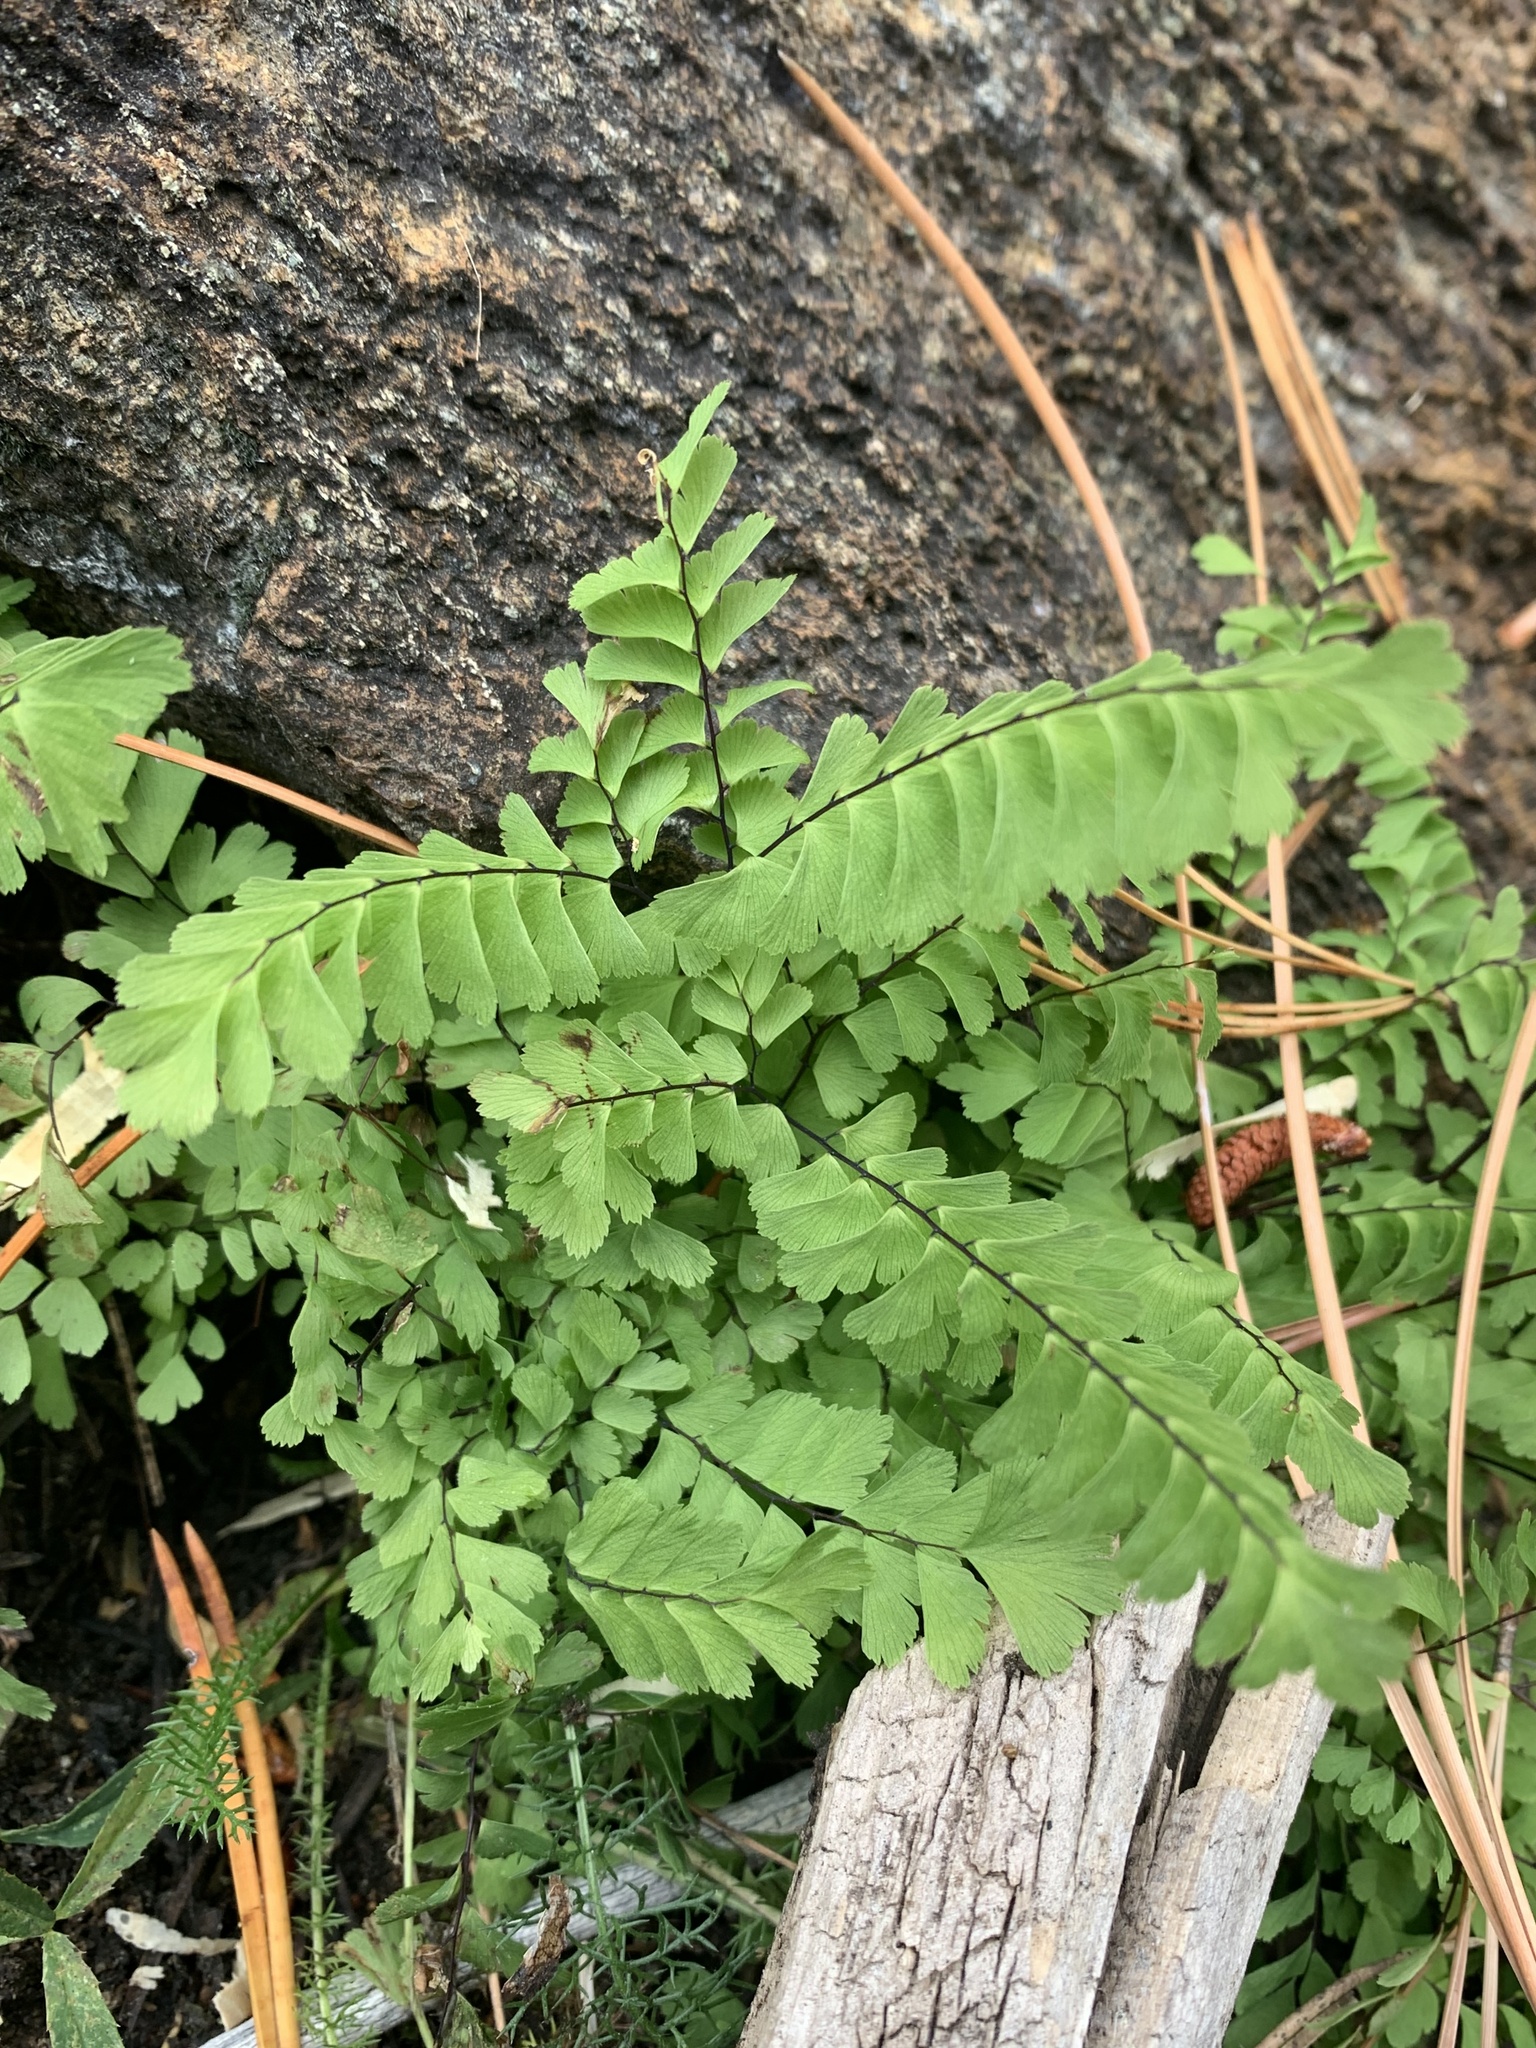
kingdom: Plantae
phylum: Tracheophyta
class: Polypodiopsida
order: Polypodiales
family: Pteridaceae
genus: Adiantum
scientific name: Adiantum aleuticum
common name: Aleutian maidenhair fern
